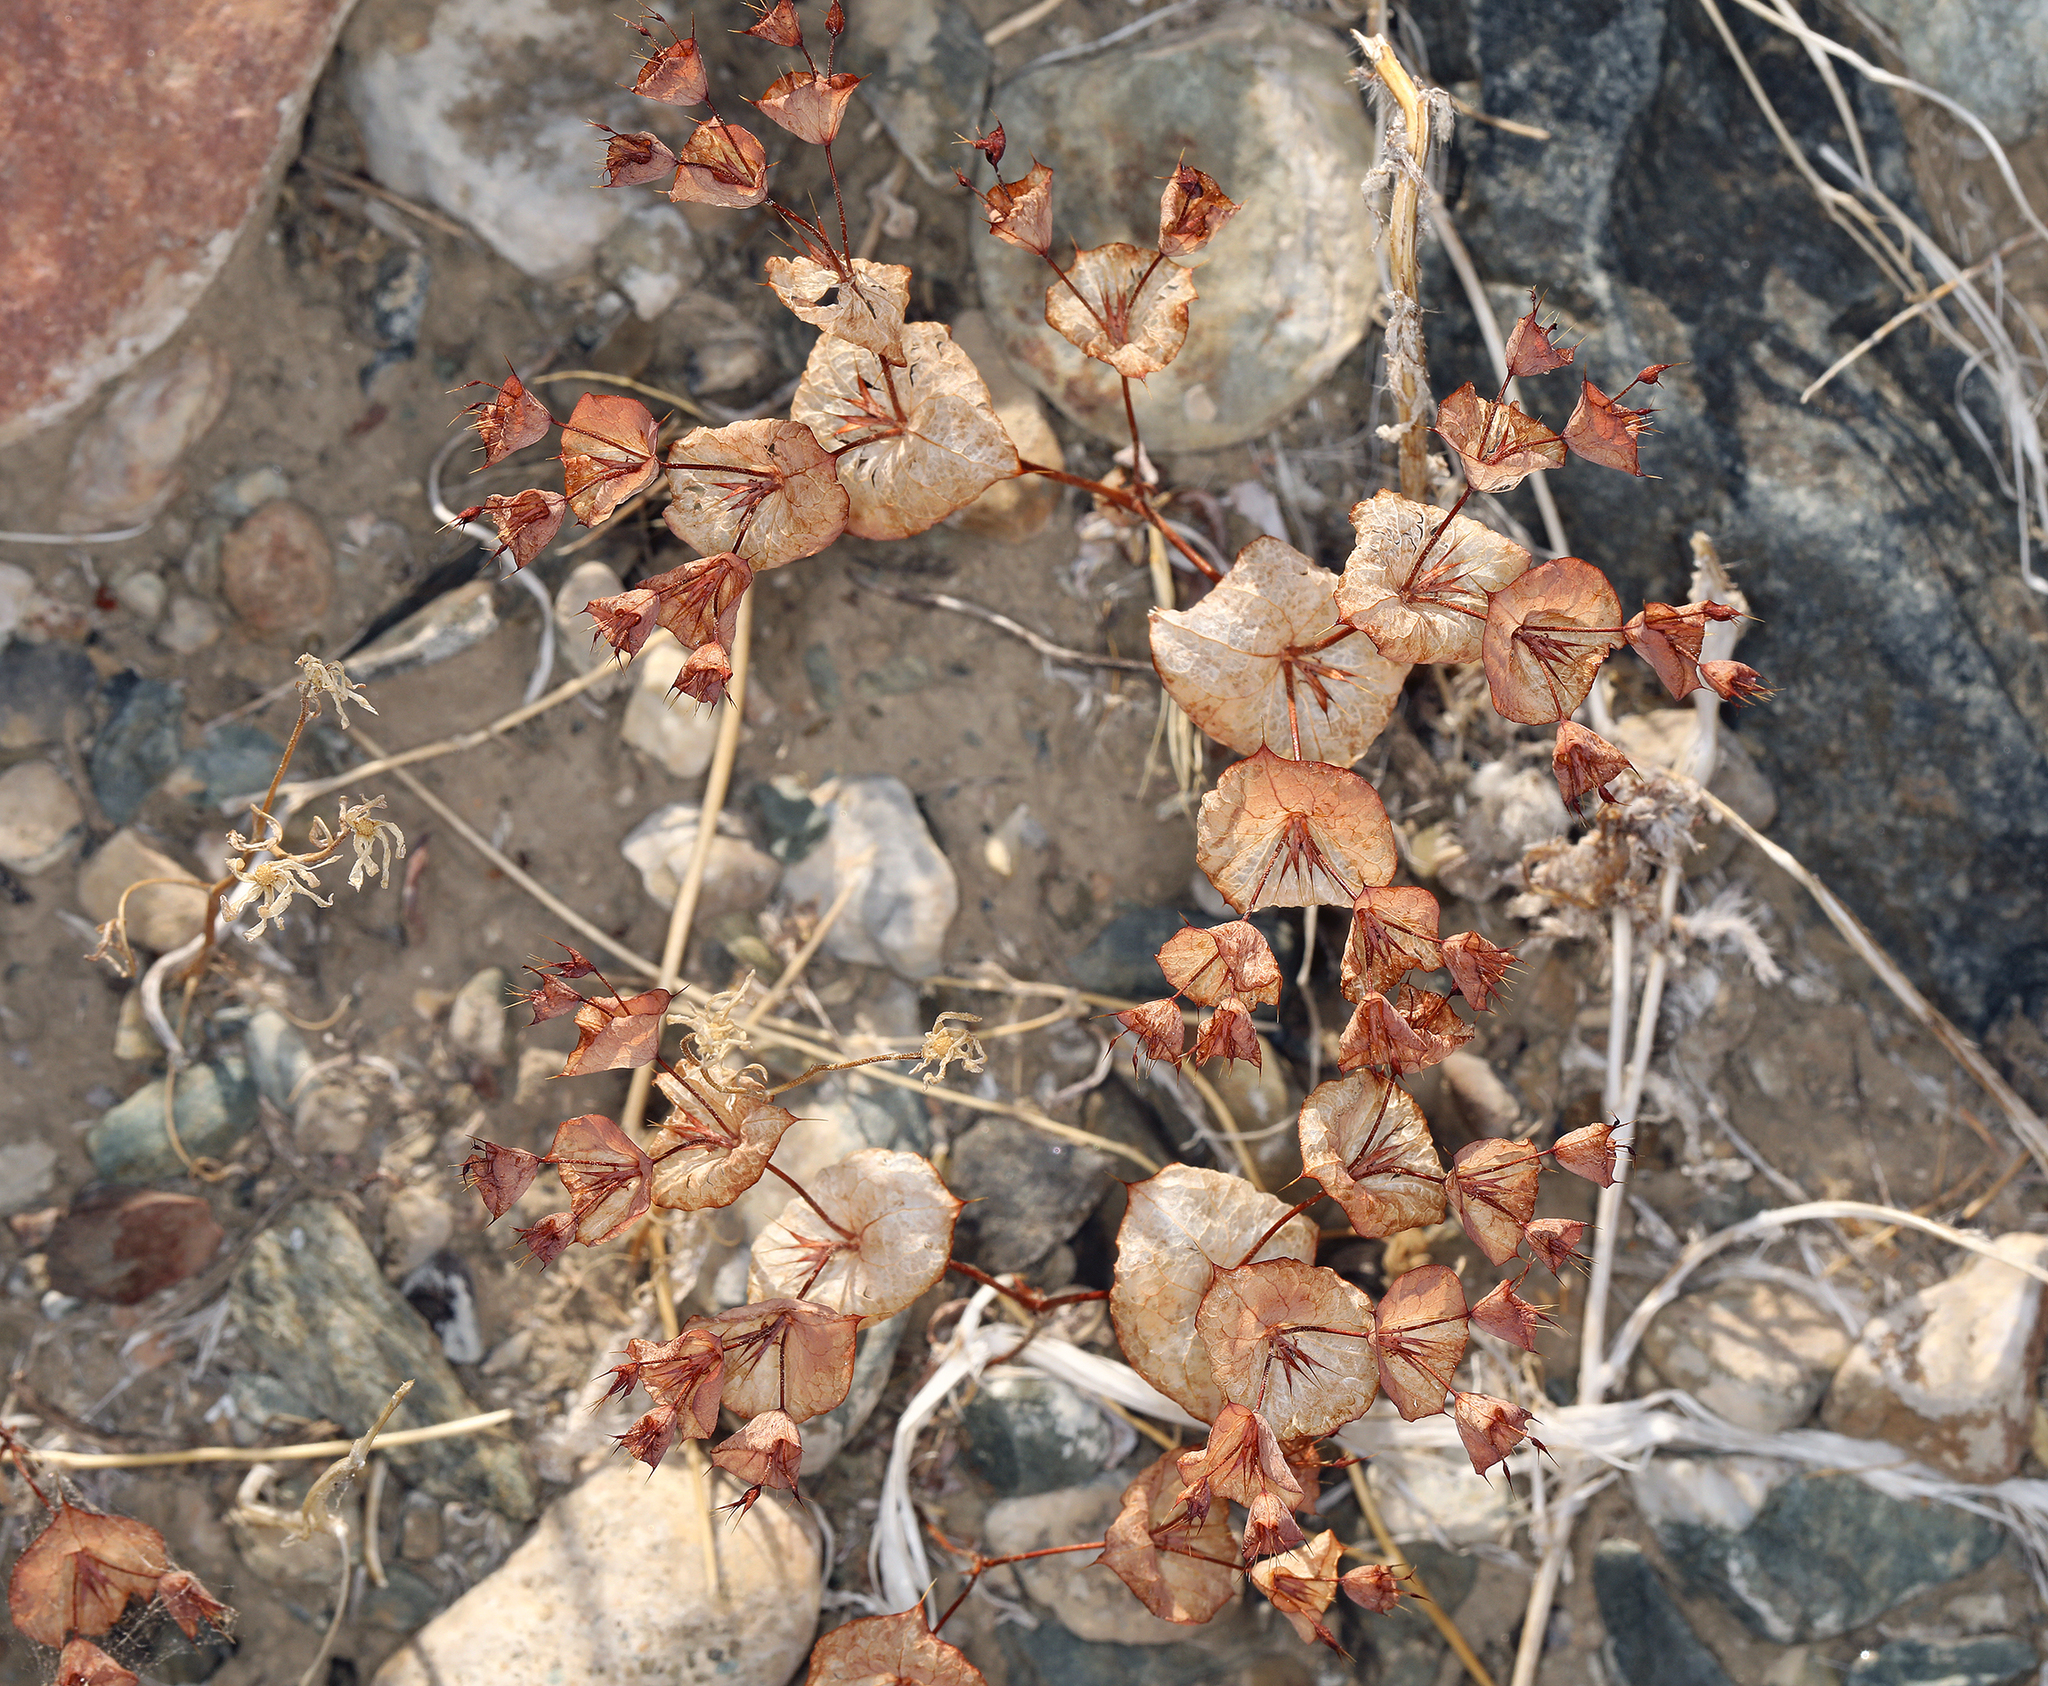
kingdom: Plantae
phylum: Tracheophyta
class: Magnoliopsida
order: Caryophyllales
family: Polygonaceae
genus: Oxytheca
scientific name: Oxytheca perfoliata
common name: Round-leaf puncturebract
